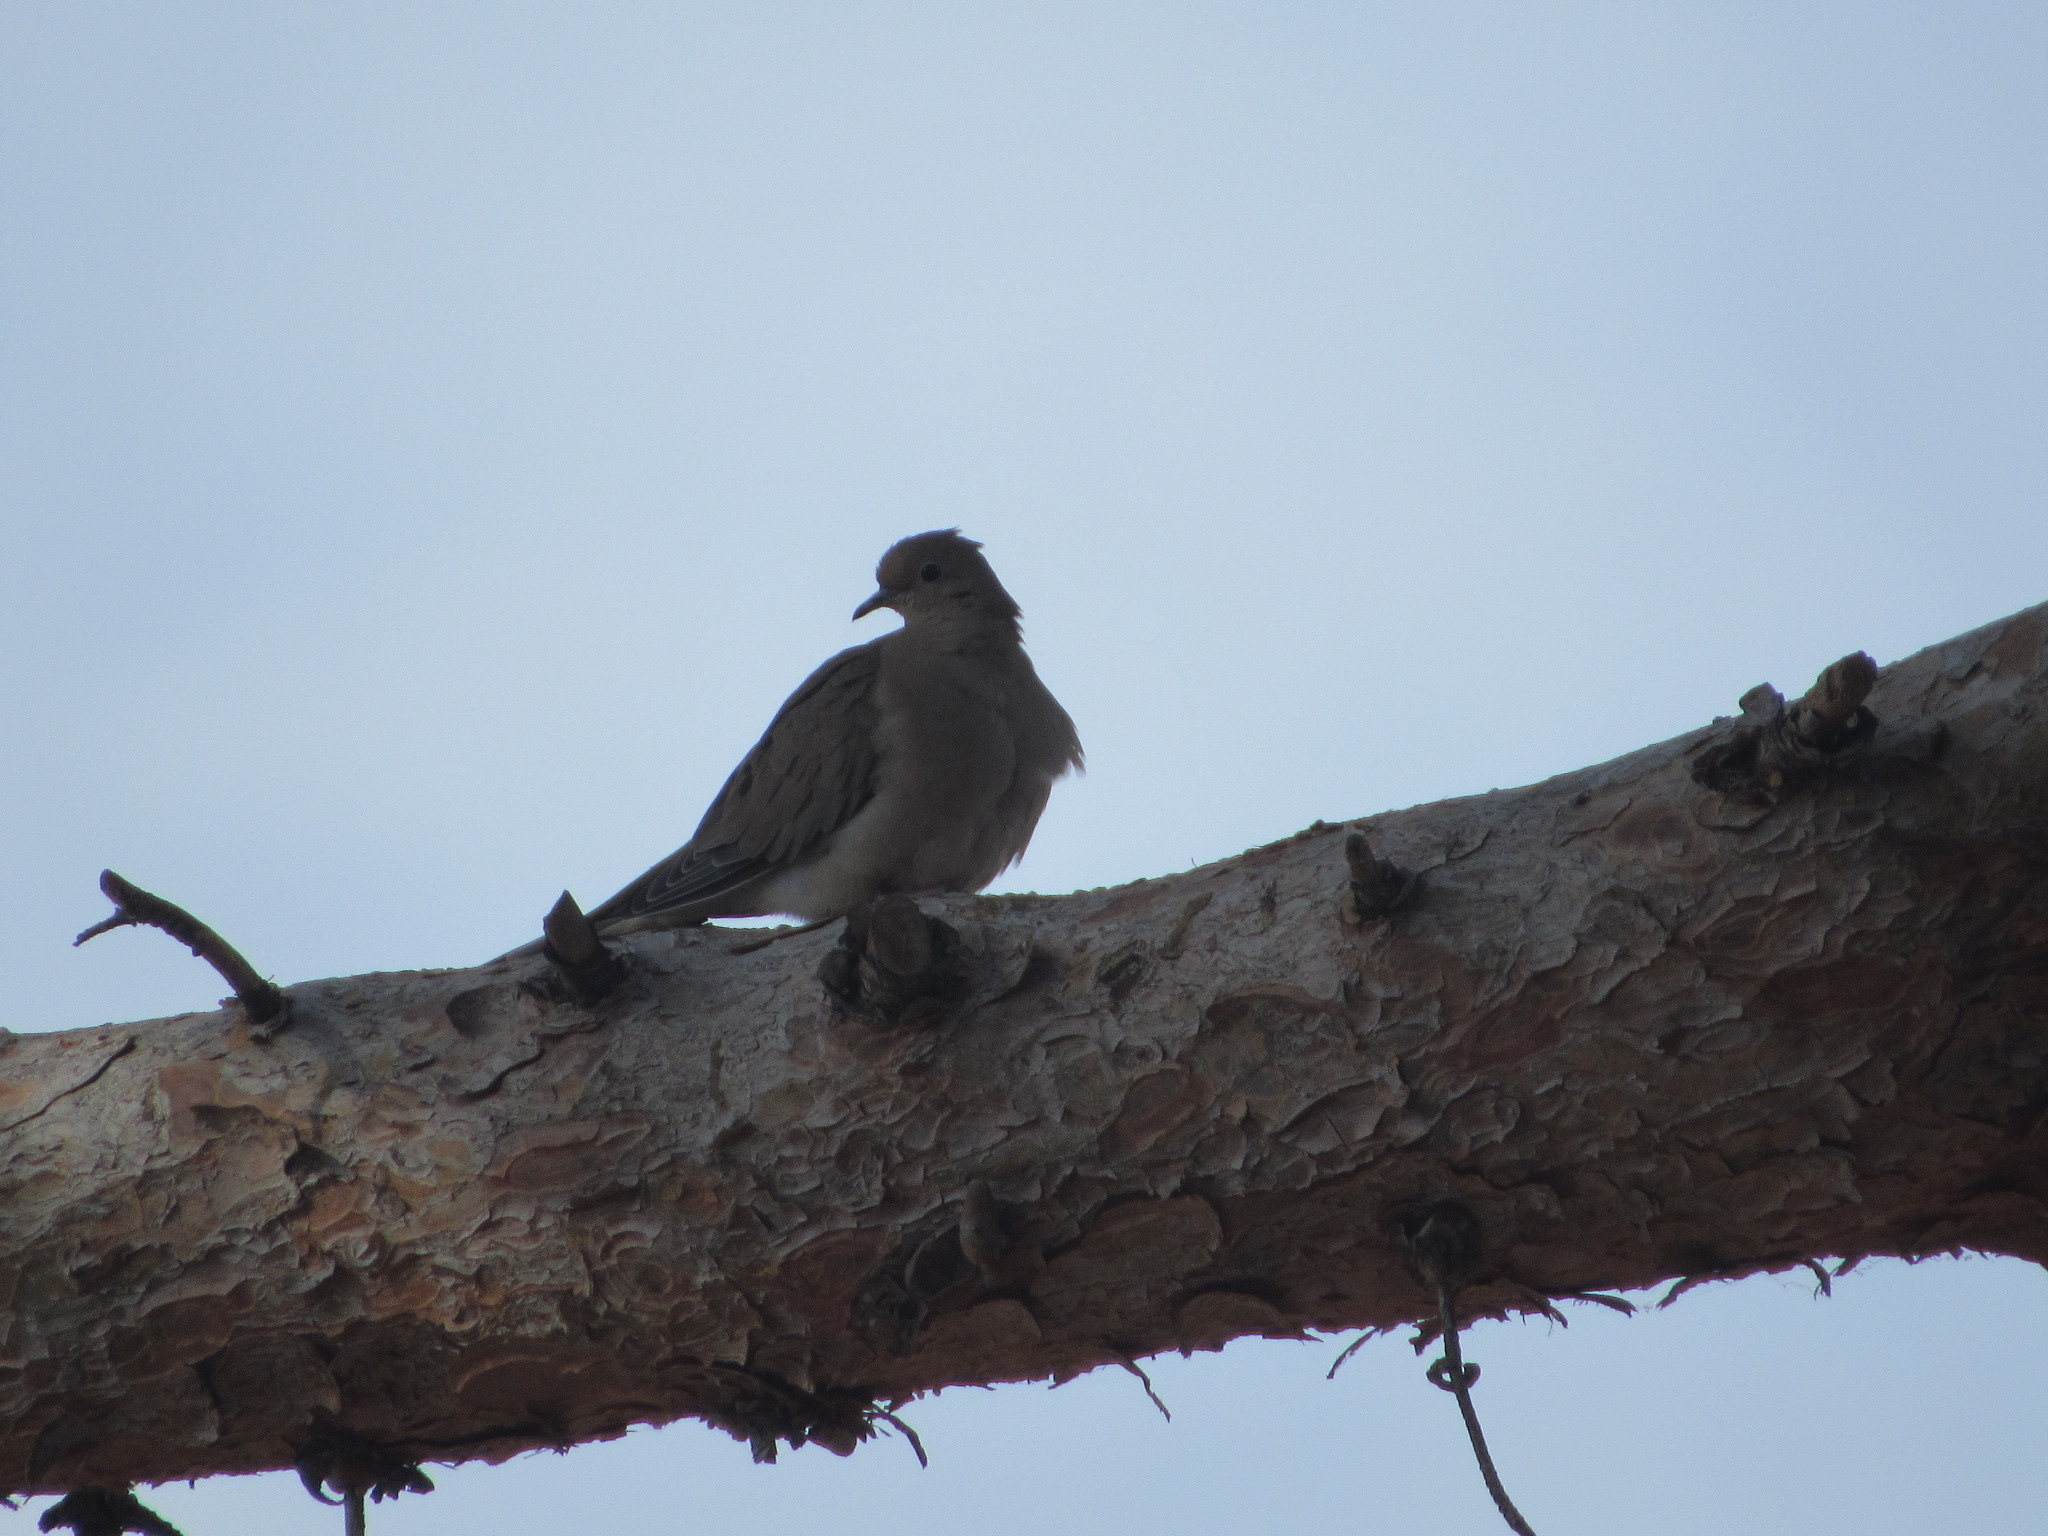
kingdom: Animalia
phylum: Chordata
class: Aves
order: Columbiformes
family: Columbidae
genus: Zenaida
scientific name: Zenaida macroura
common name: Mourning dove
